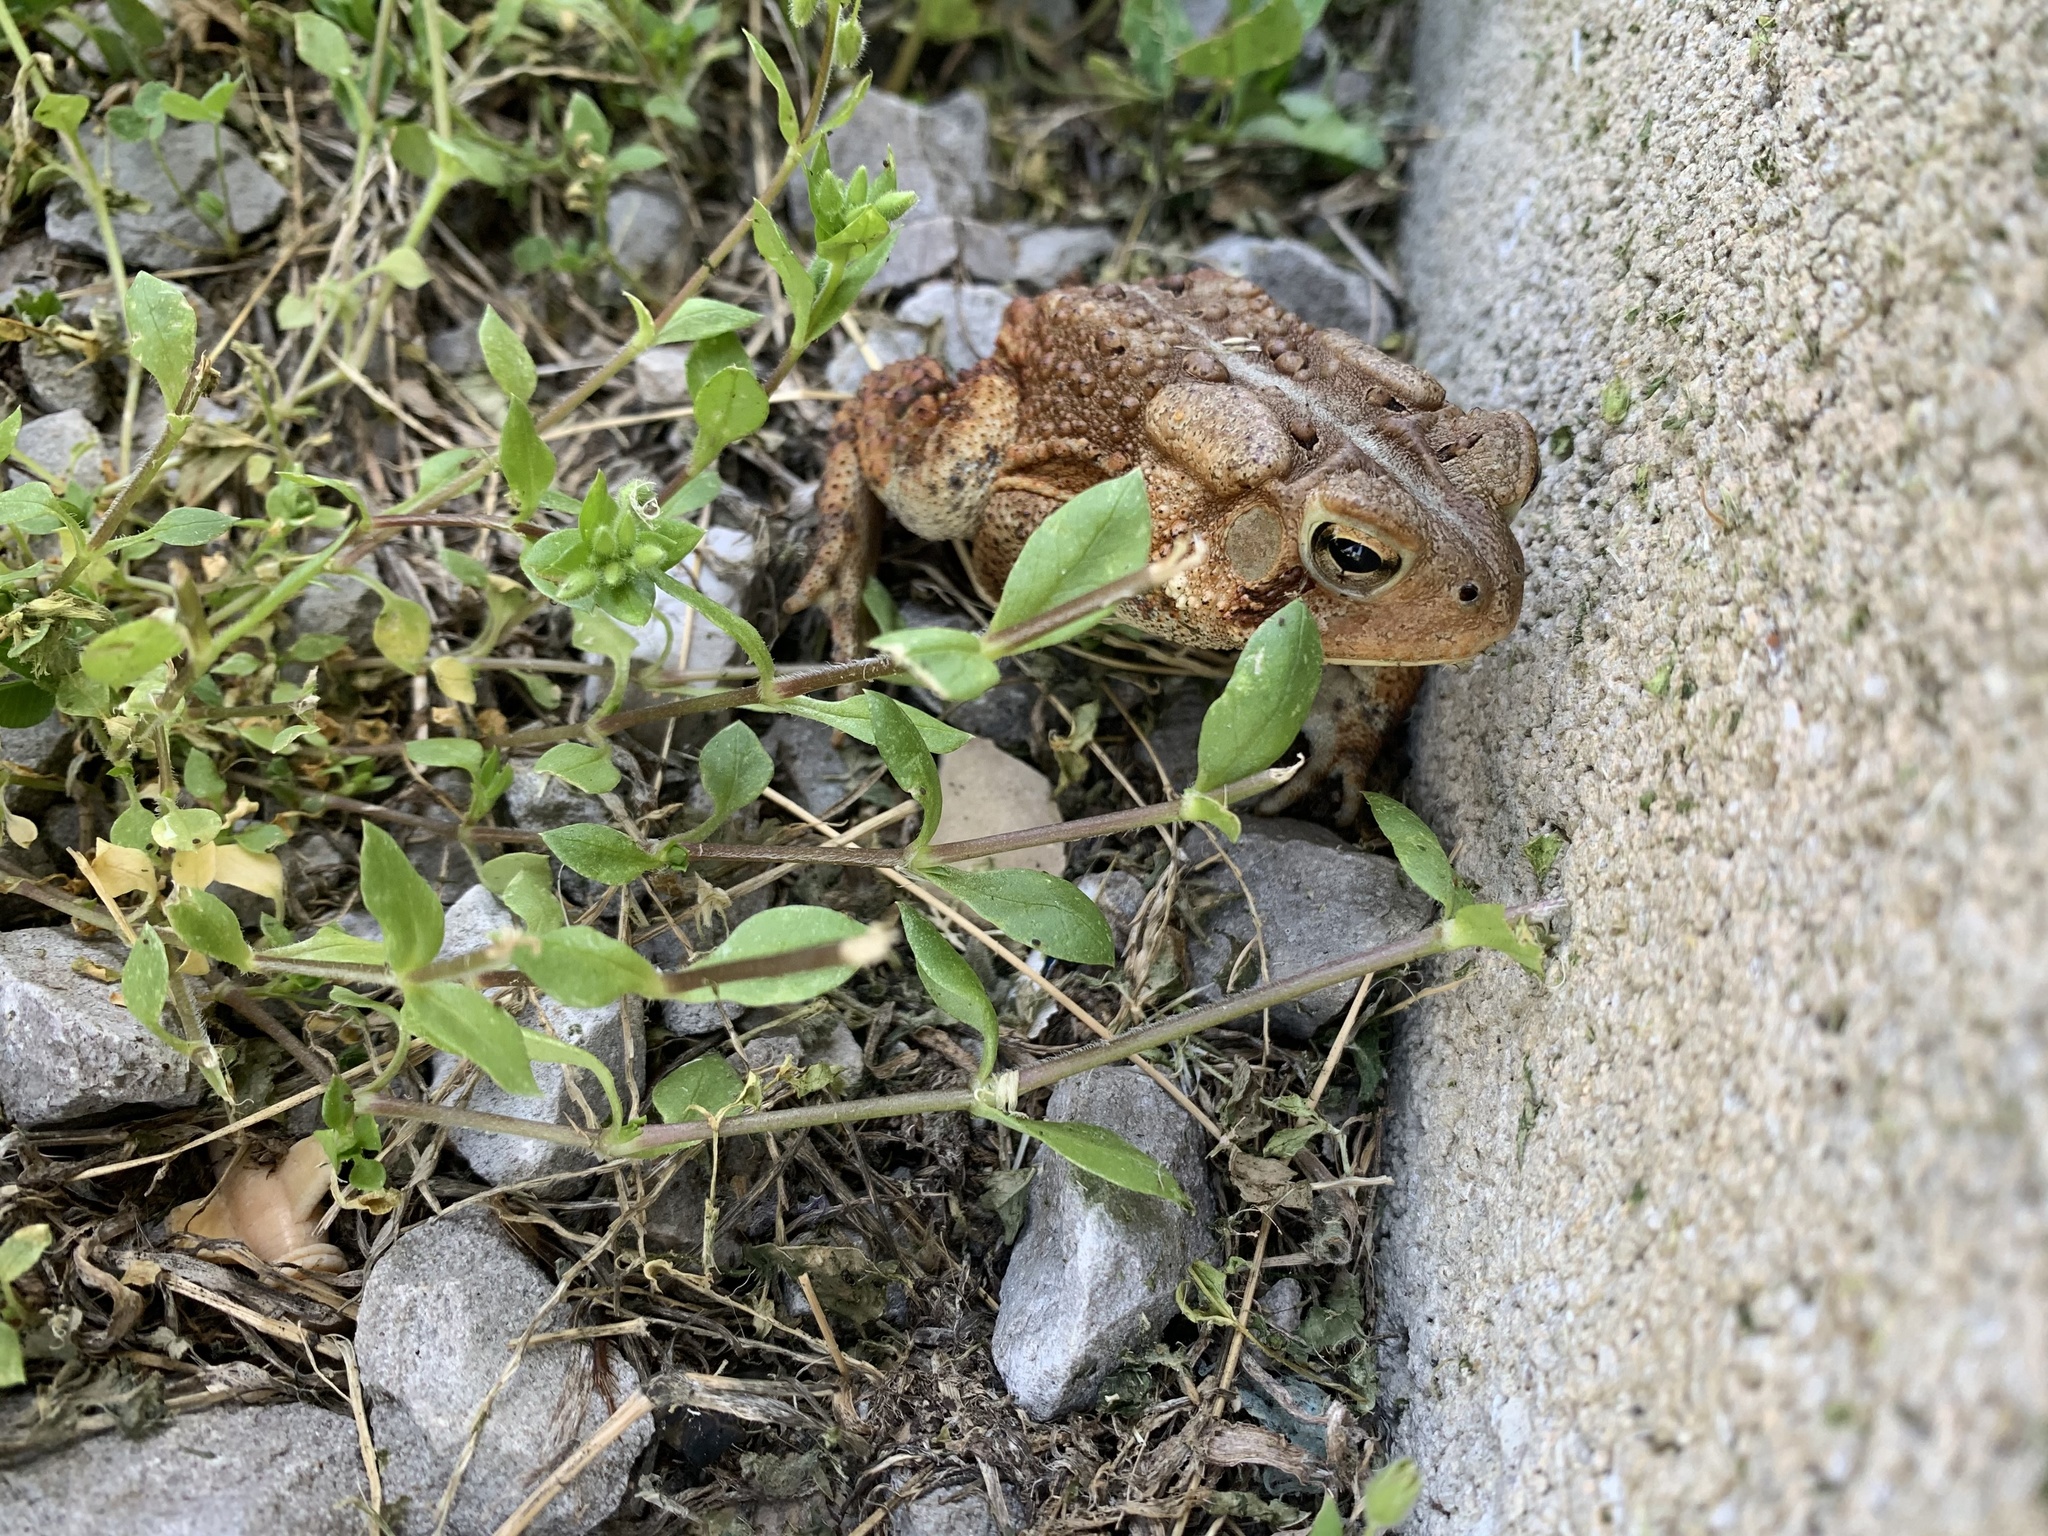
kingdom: Animalia
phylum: Chordata
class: Amphibia
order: Anura
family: Bufonidae
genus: Anaxyrus
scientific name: Anaxyrus americanus
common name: American toad
